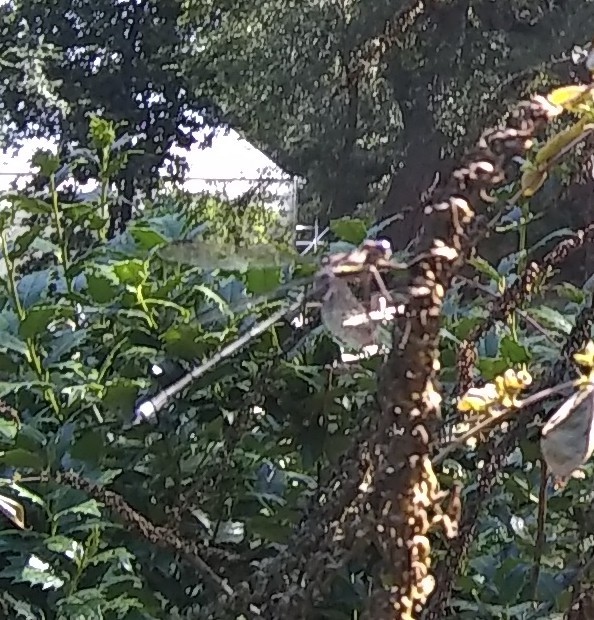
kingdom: Animalia
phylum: Arthropoda
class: Insecta
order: Odonata
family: Lestidae
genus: Archilestes
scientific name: Archilestes grandis
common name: Great spreadwing
